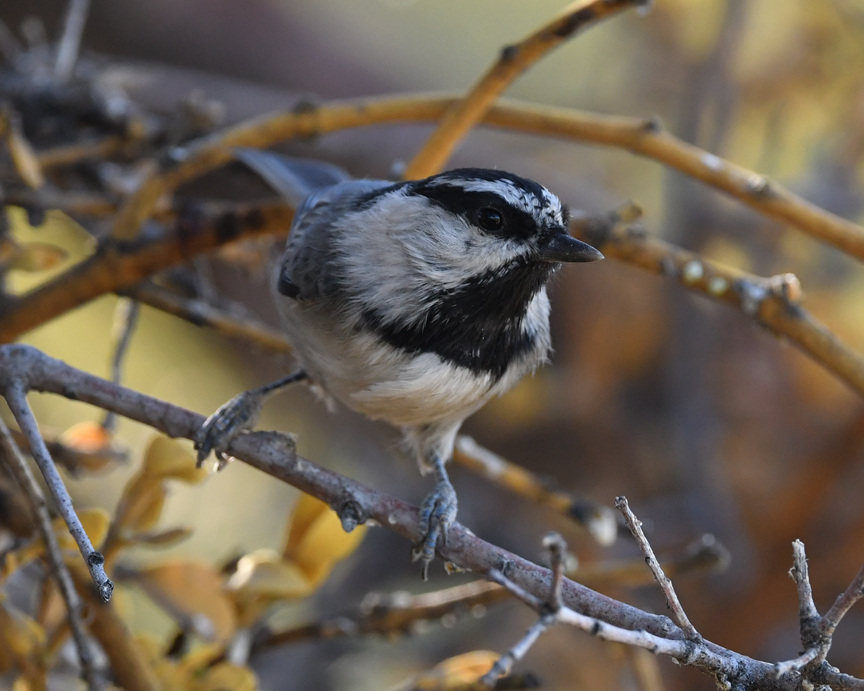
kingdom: Animalia
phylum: Chordata
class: Aves
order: Passeriformes
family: Paridae
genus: Poecile
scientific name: Poecile gambeli
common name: Mountain chickadee
